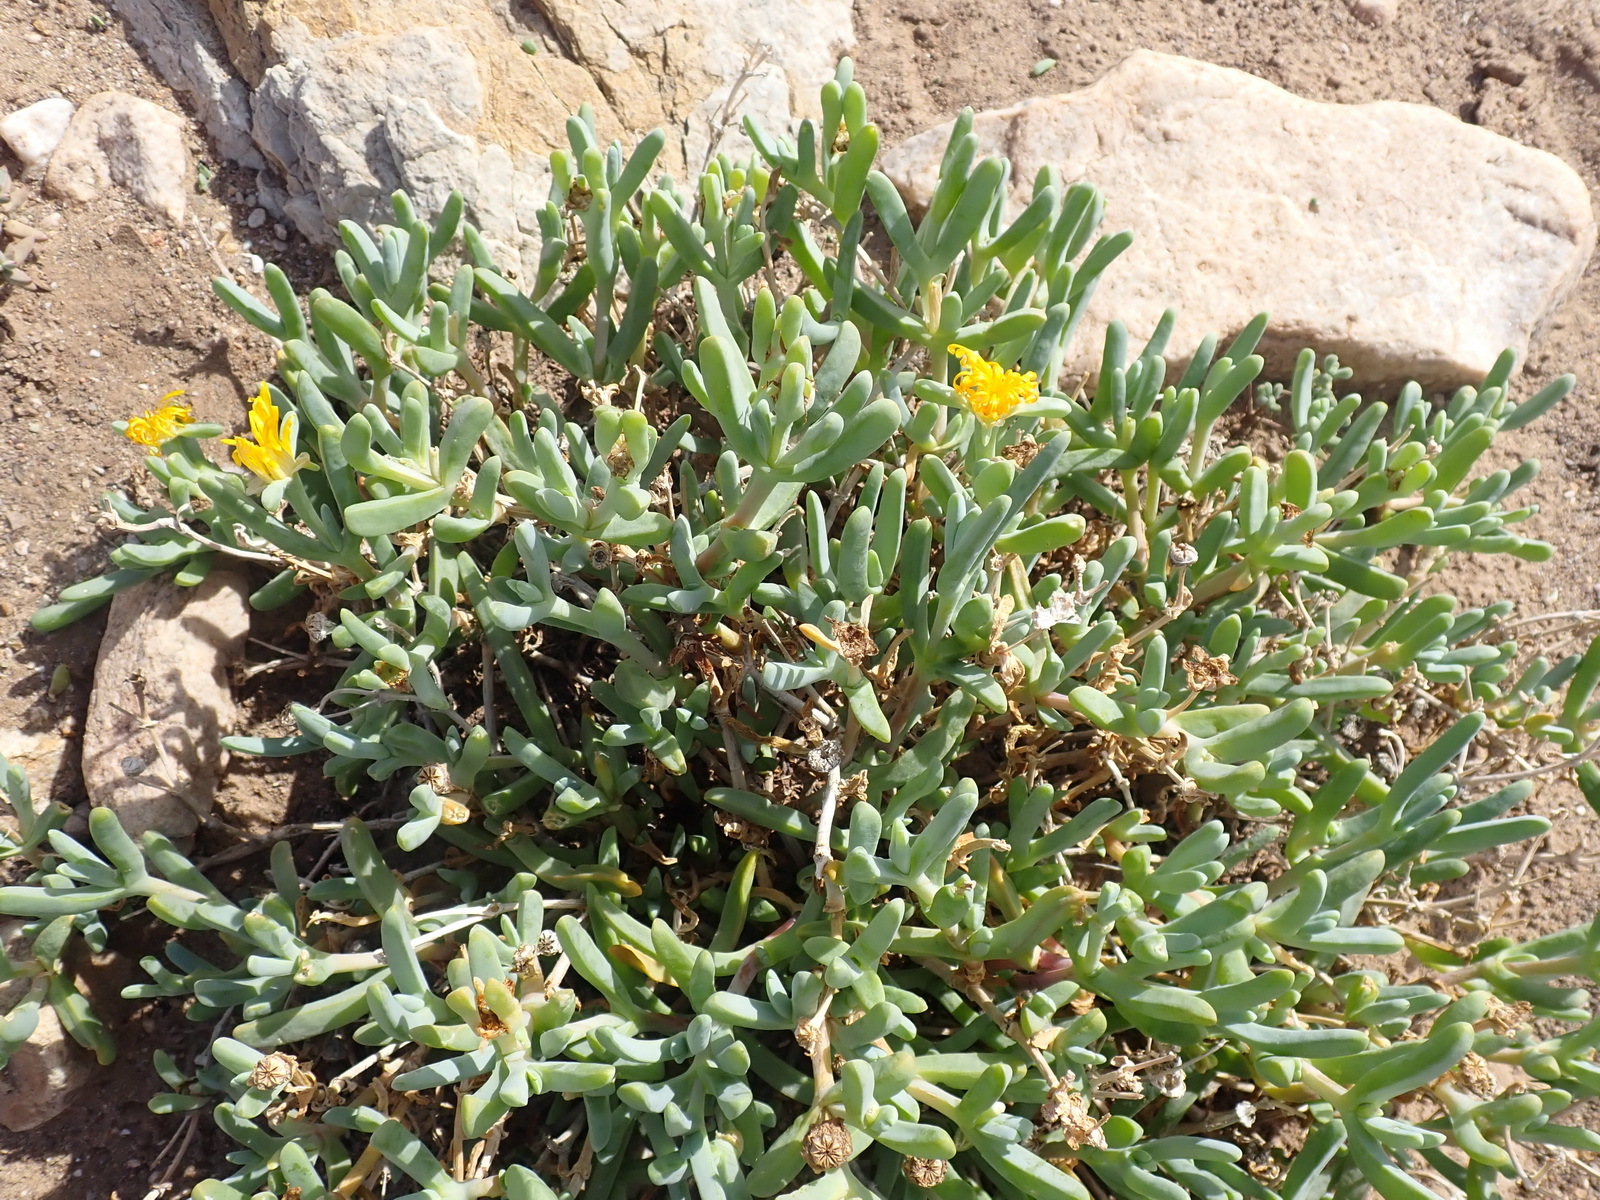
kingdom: Plantae
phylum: Tracheophyta
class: Magnoliopsida
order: Caryophyllales
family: Aizoaceae
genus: Malephora
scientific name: Malephora lutea
